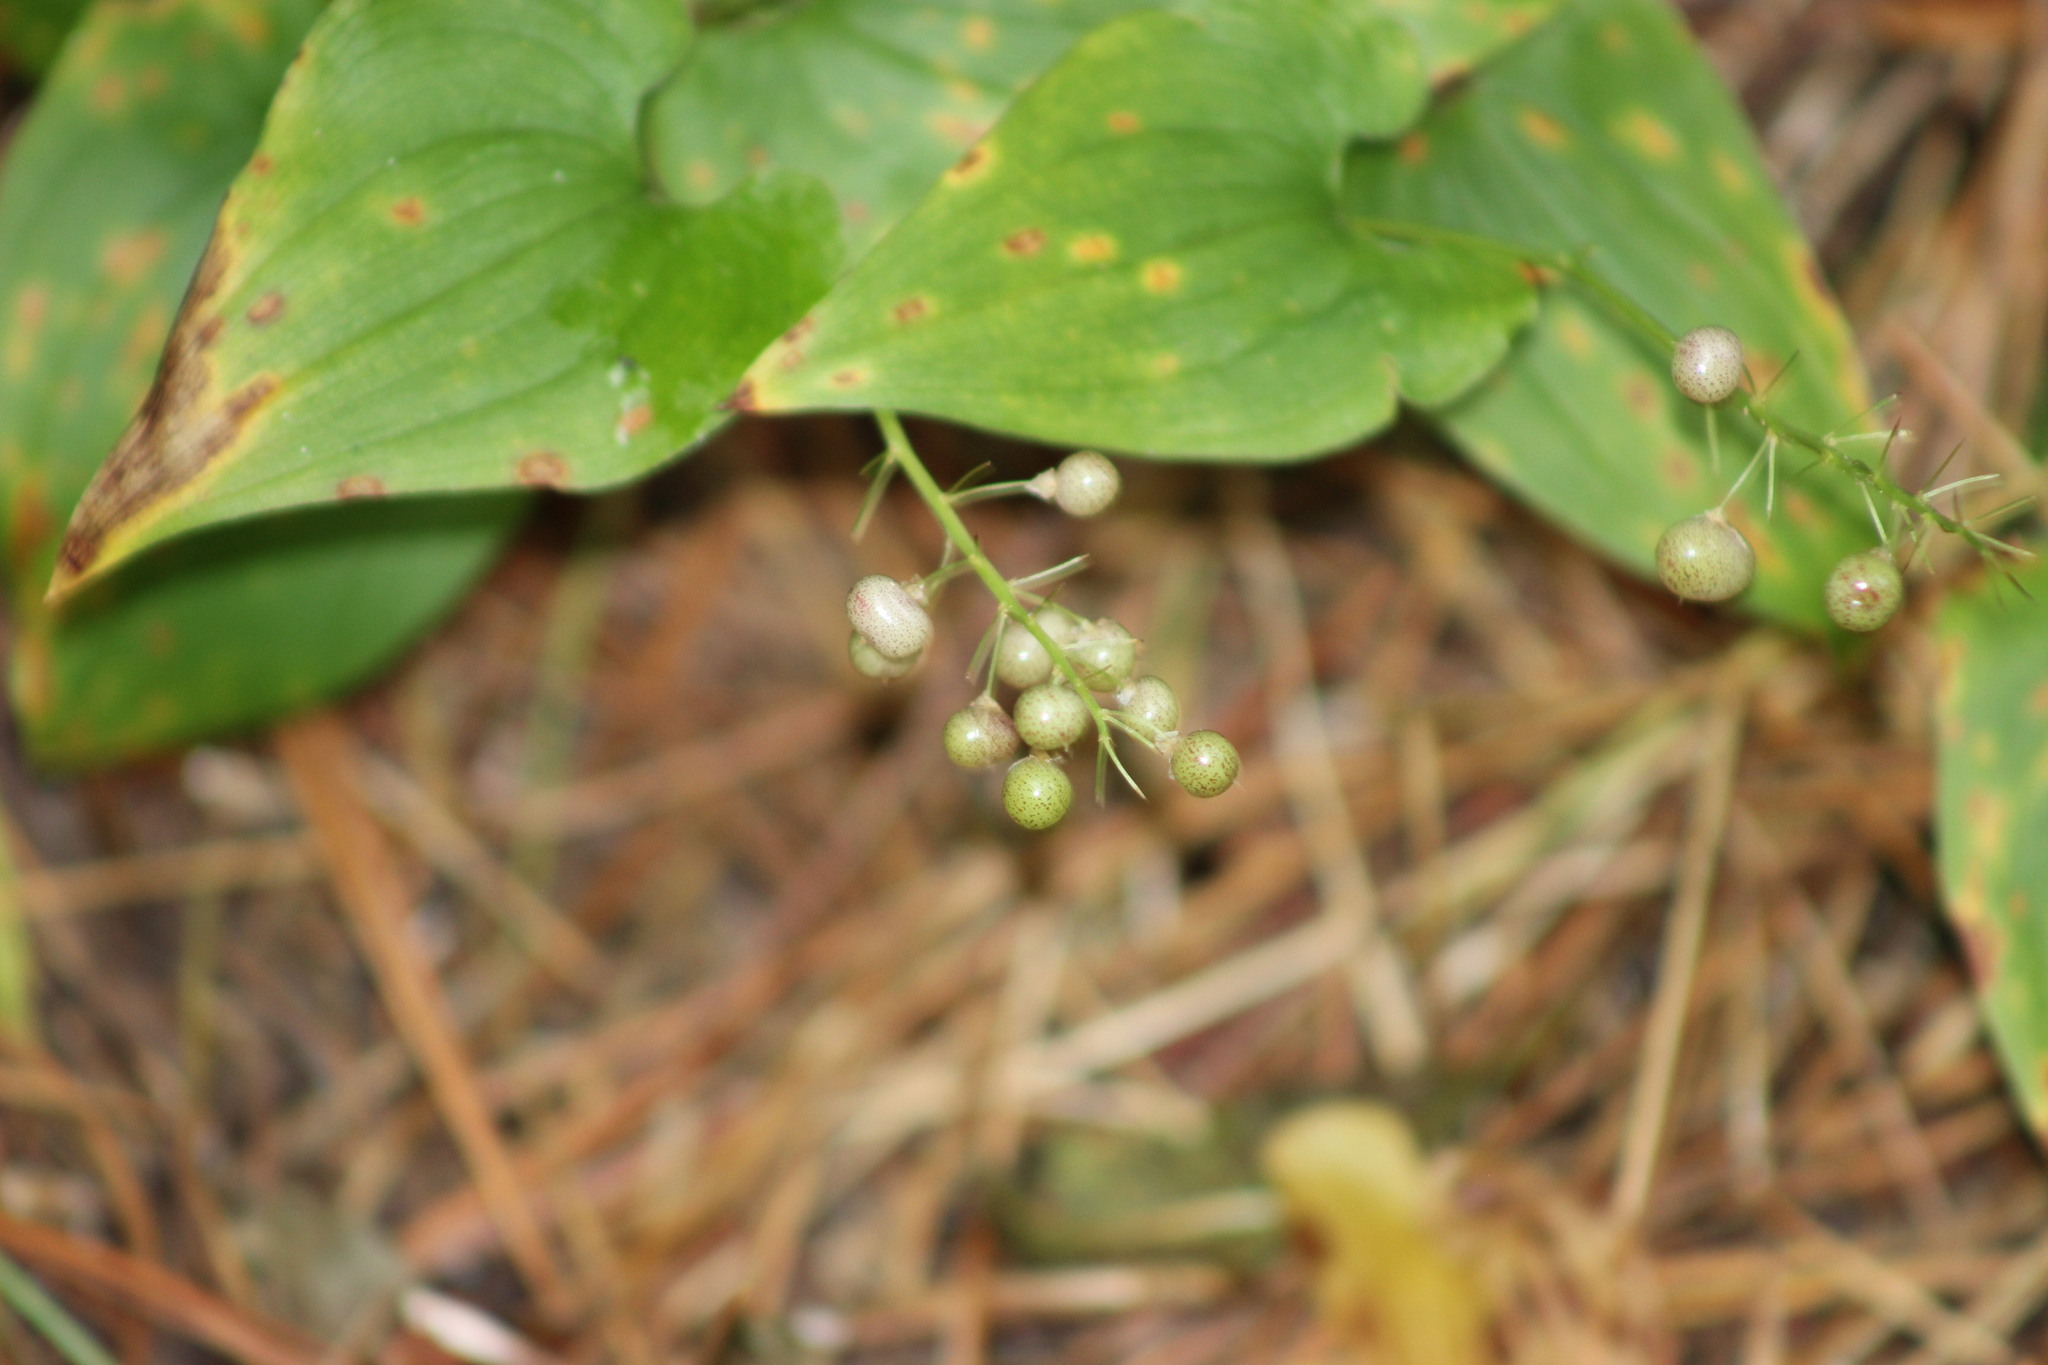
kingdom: Plantae
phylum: Tracheophyta
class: Liliopsida
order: Asparagales
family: Asparagaceae
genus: Maianthemum
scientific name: Maianthemum bifolium
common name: May lily
